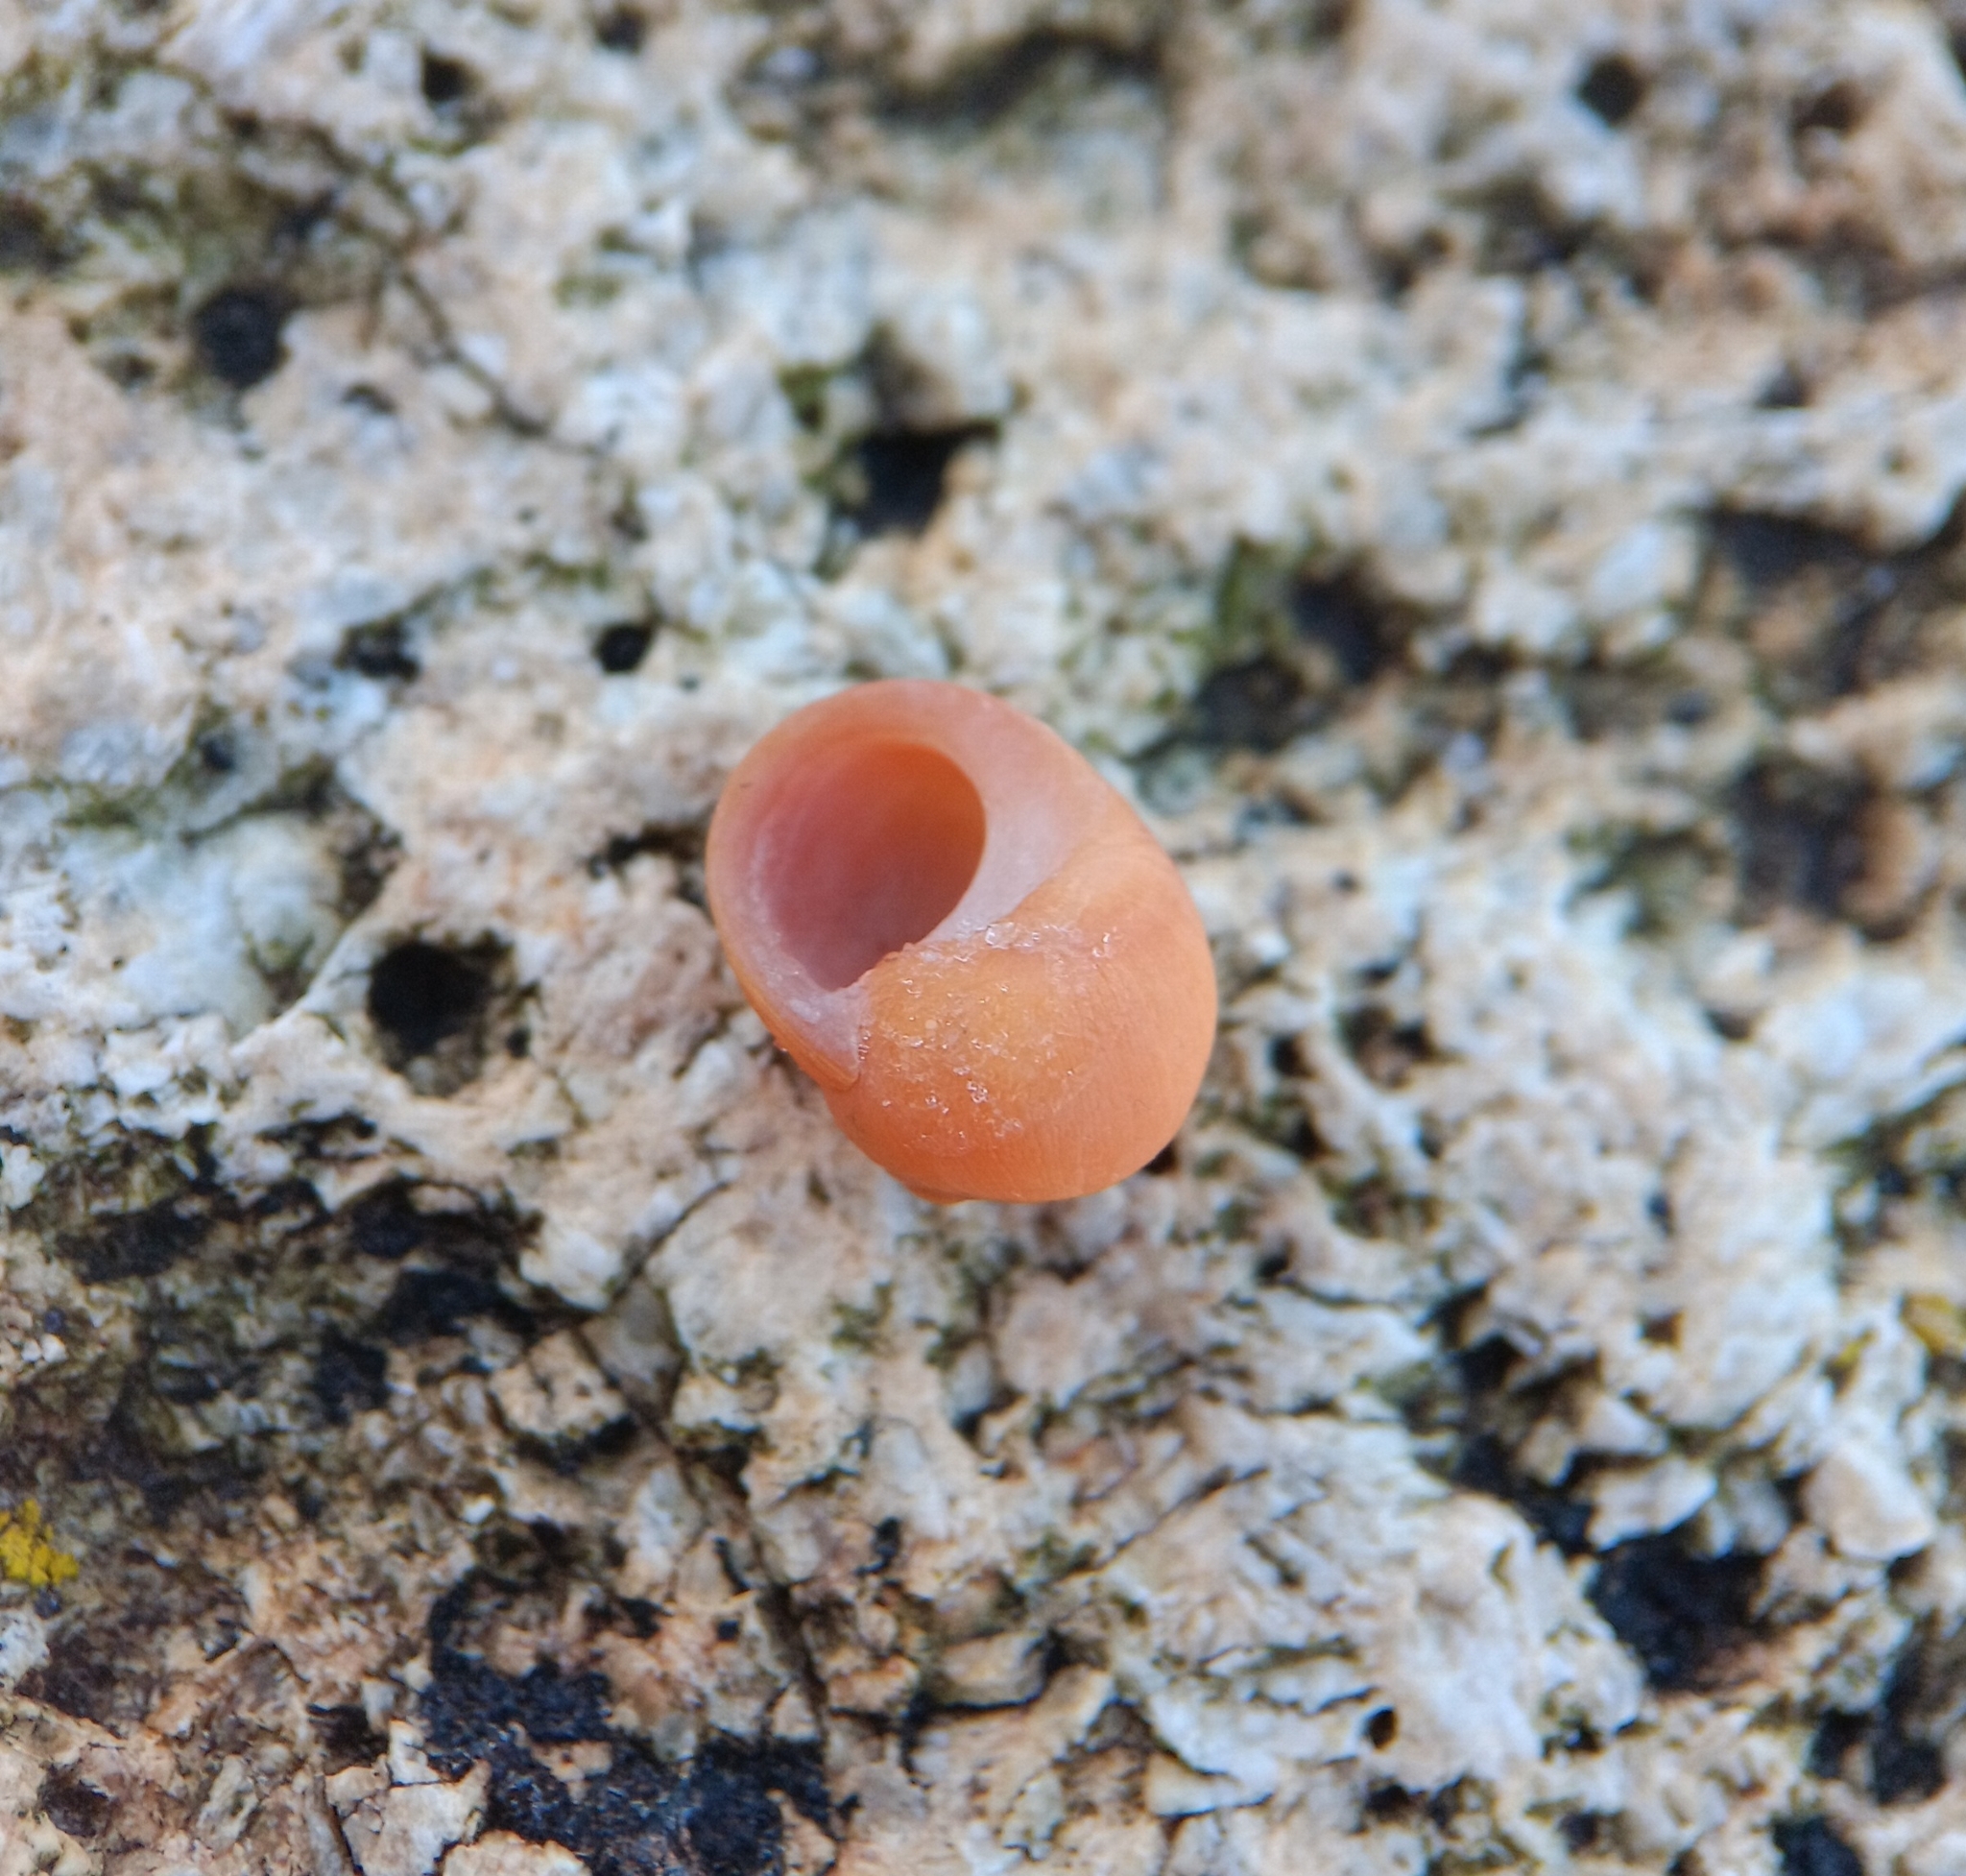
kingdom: Animalia
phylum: Mollusca
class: Gastropoda
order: Littorinimorpha
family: Littorinidae
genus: Littorina
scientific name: Littorina obtusata
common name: Flat periwinkle
